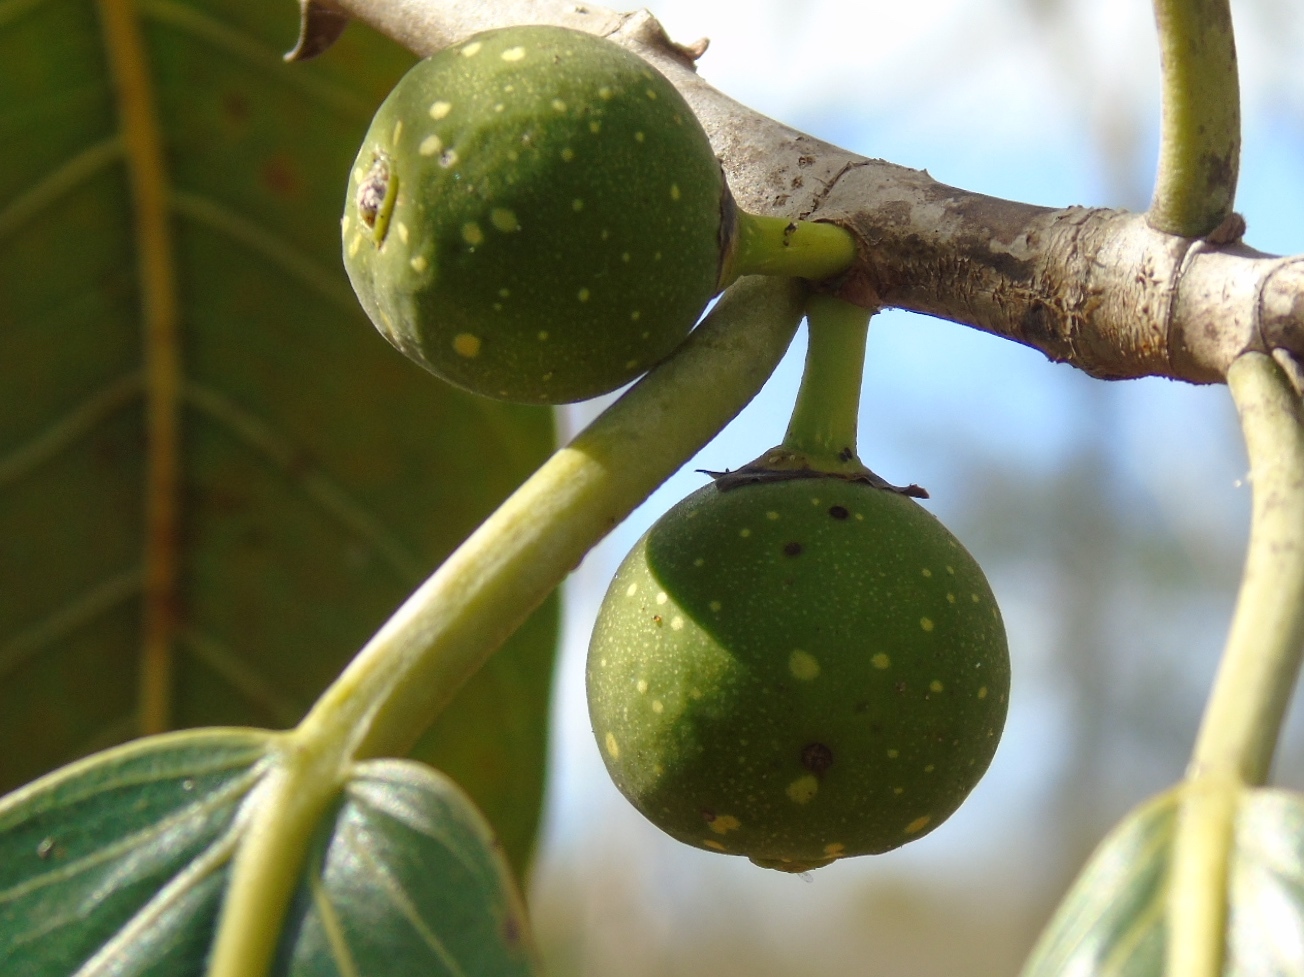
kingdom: Plantae
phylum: Tracheophyta
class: Magnoliopsida
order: Rosales
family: Moraceae
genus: Ficus
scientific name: Ficus crocata
